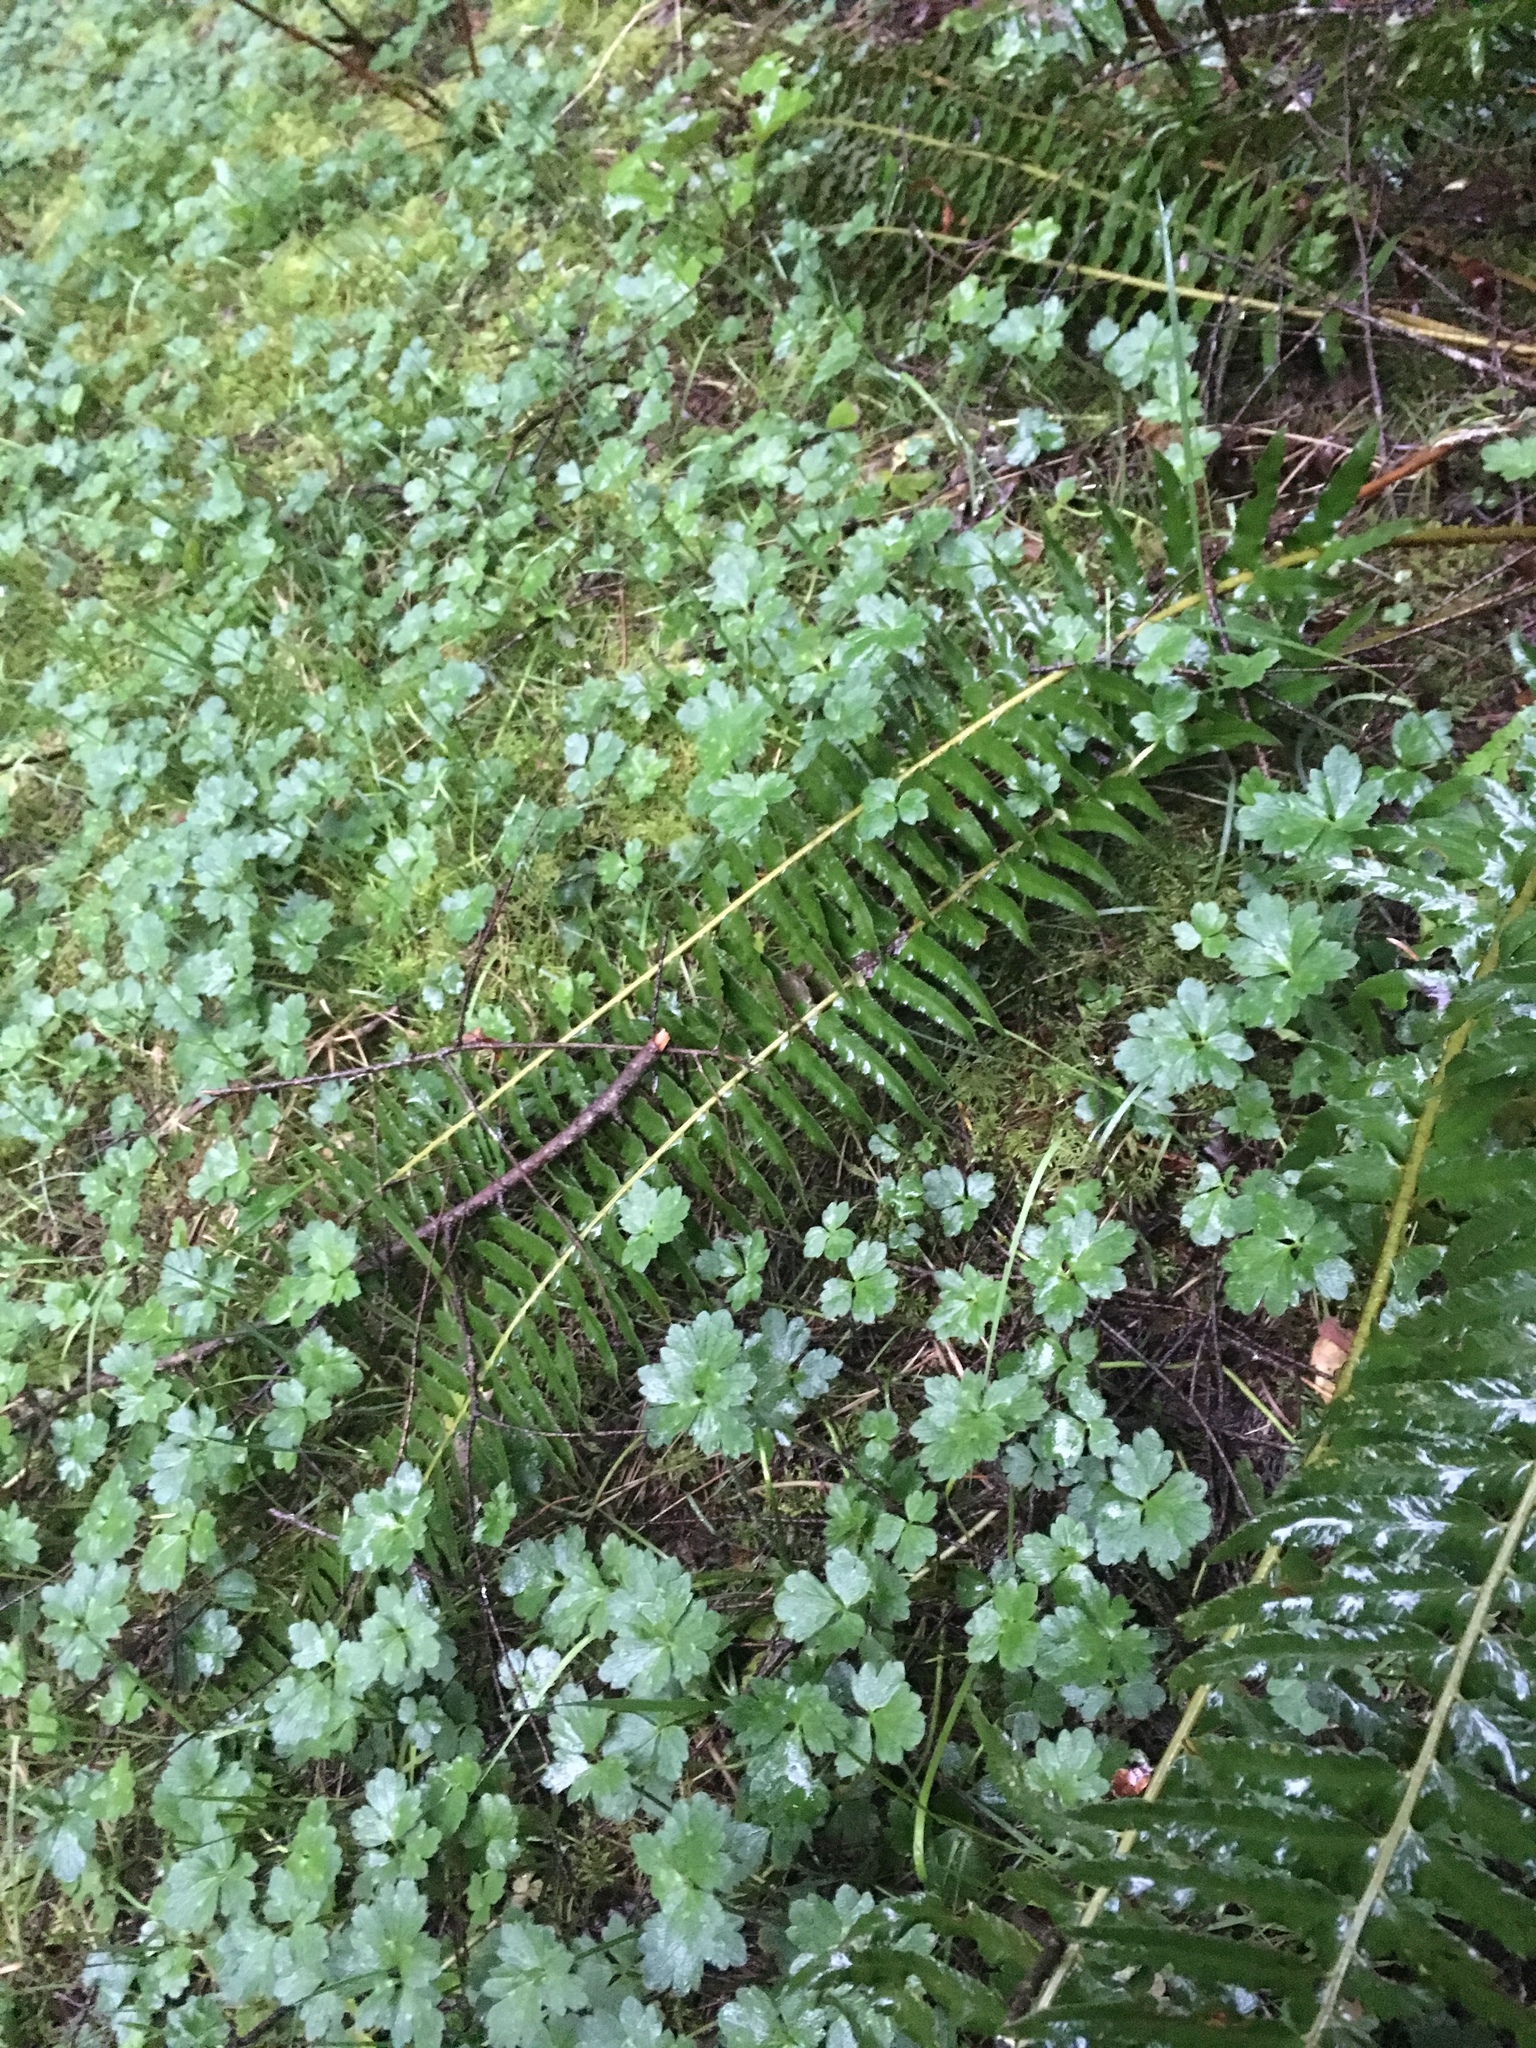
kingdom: Plantae
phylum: Tracheophyta
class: Polypodiopsida
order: Polypodiales
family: Dryopteridaceae
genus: Polystichum
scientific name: Polystichum munitum
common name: Western sword-fern
